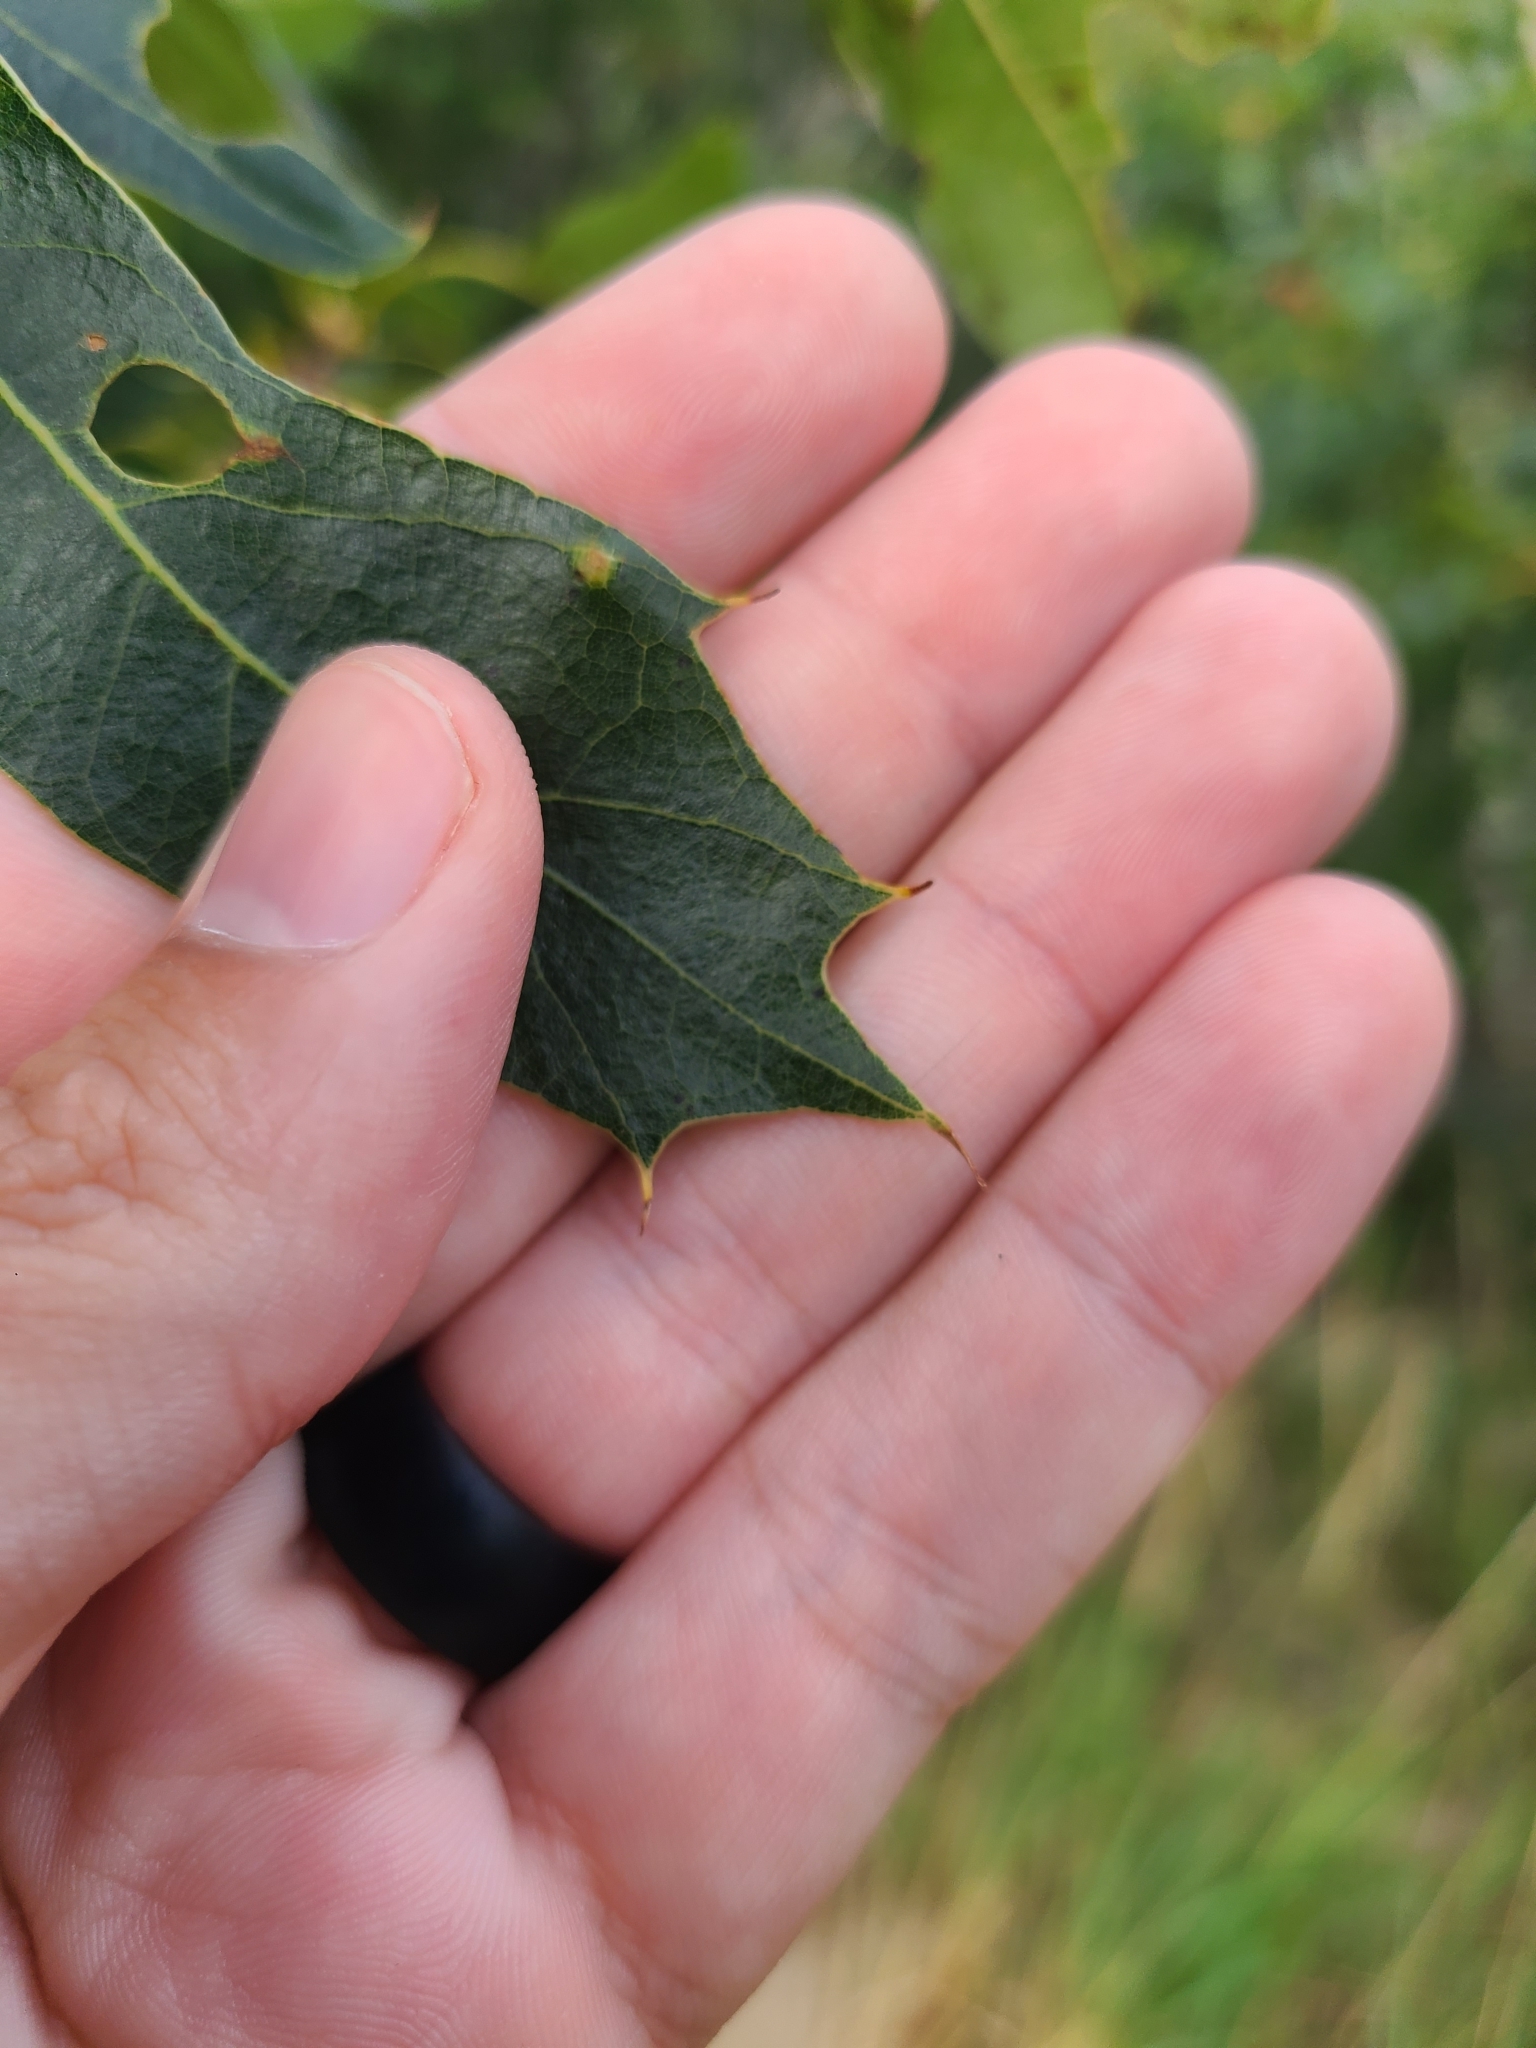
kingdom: Plantae
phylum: Tracheophyta
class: Magnoliopsida
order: Fagales
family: Fagaceae
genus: Quercus
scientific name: Quercus velutina
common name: Black oak
